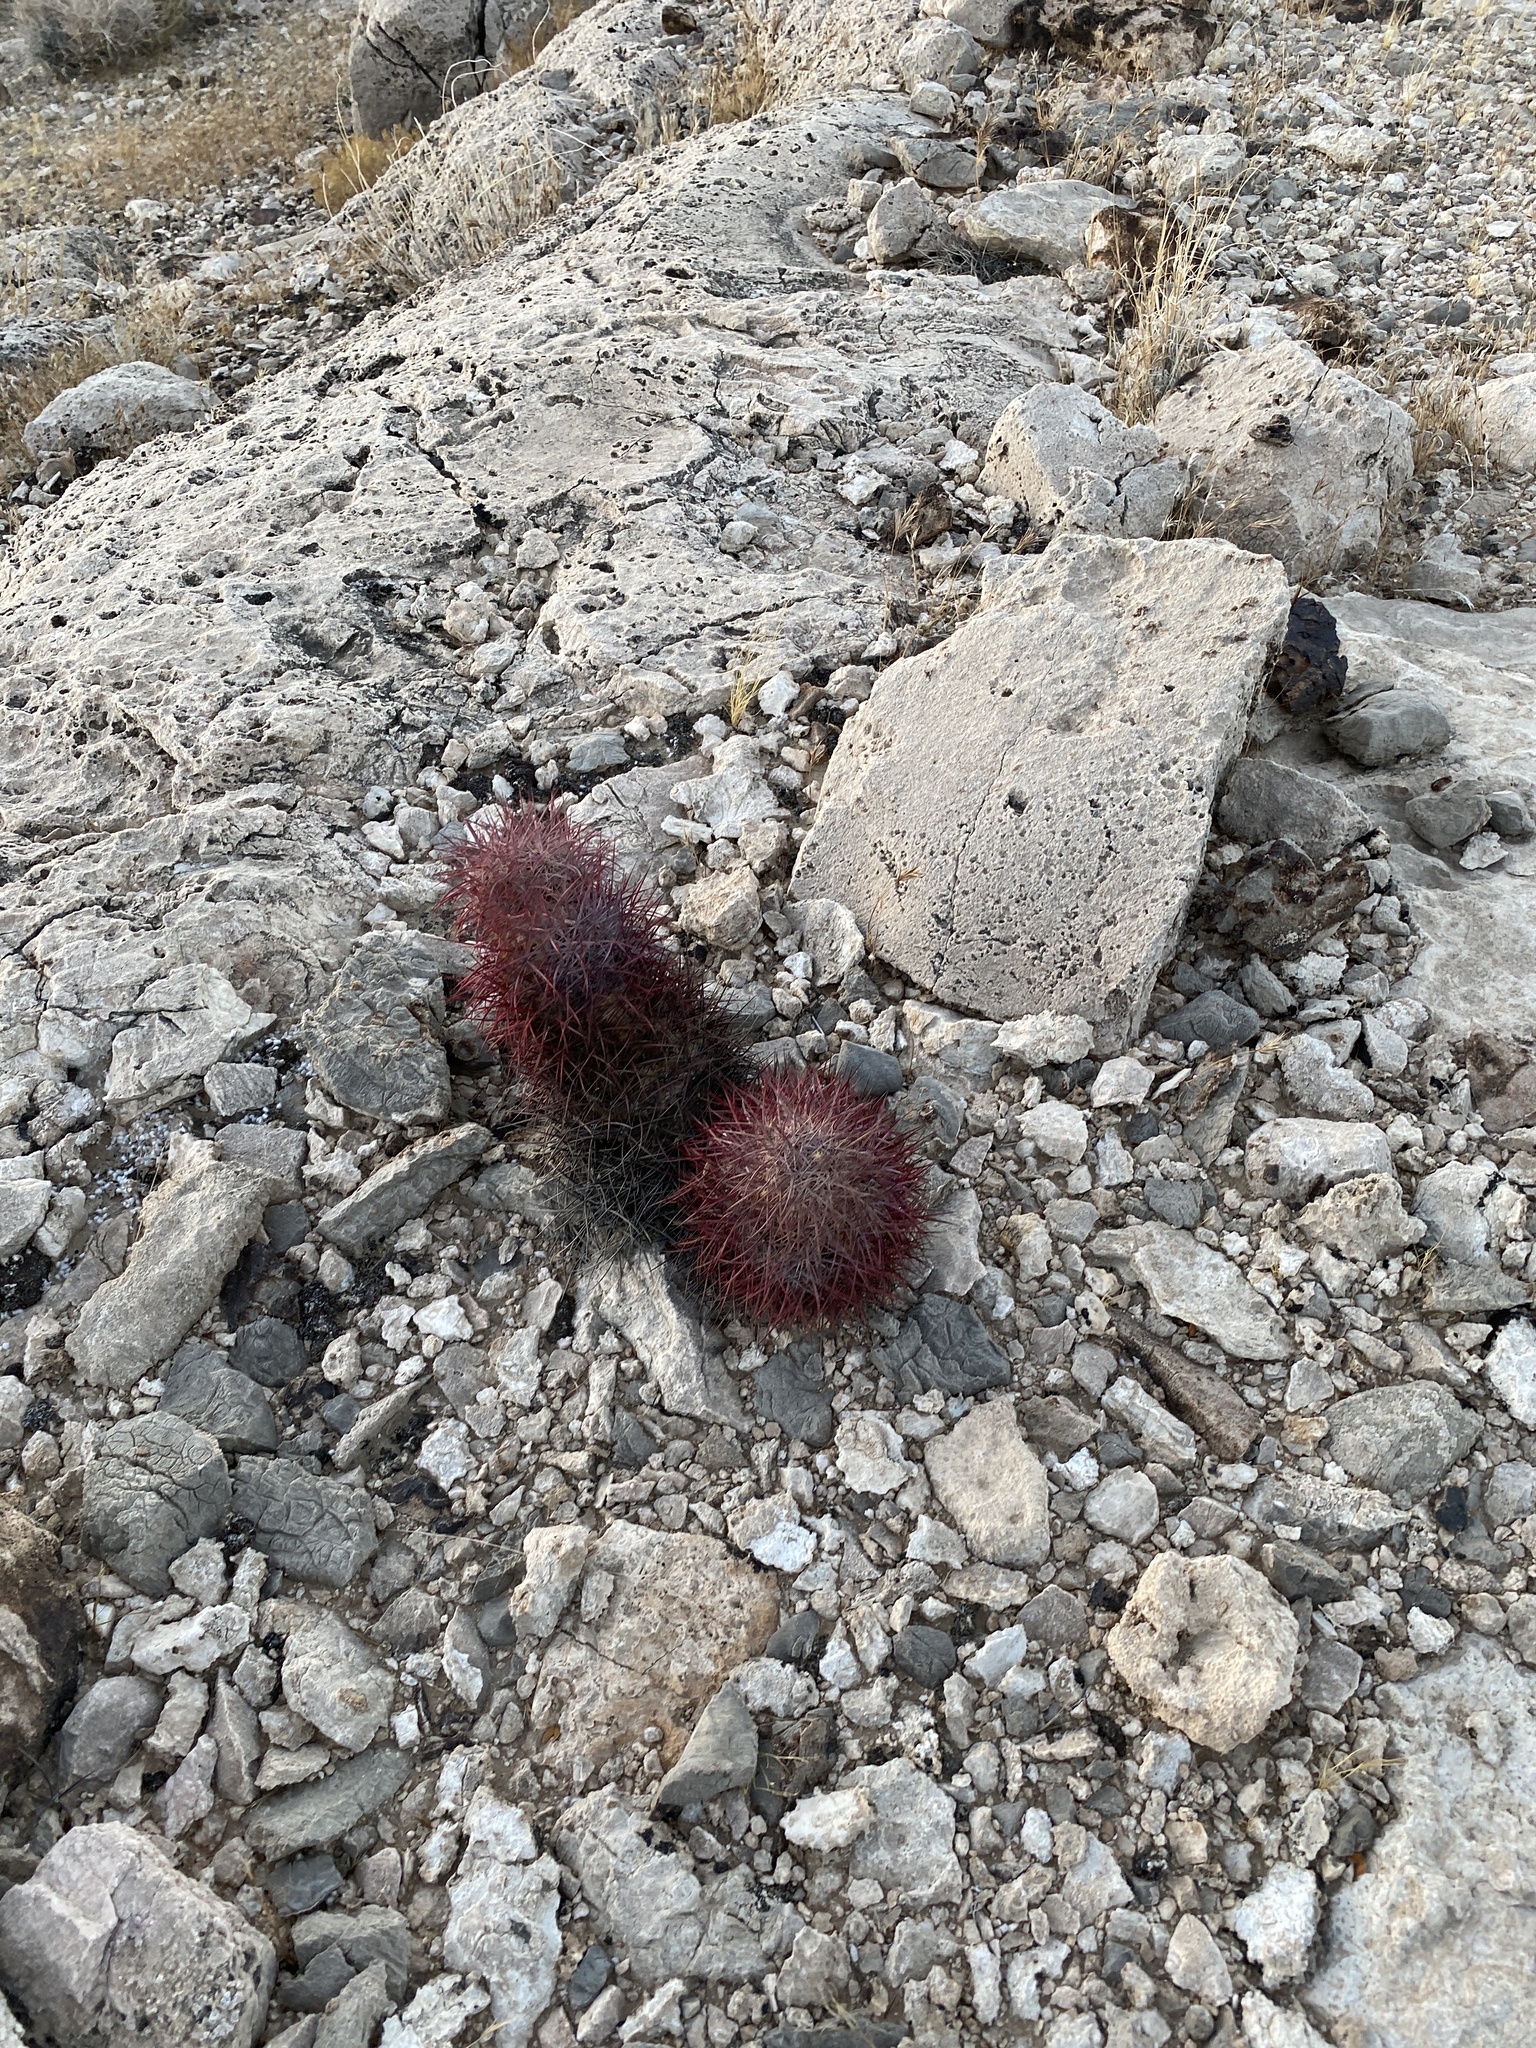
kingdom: Plantae
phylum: Tracheophyta
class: Magnoliopsida
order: Caryophyllales
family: Cactaceae
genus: Sclerocactus
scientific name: Sclerocactus johnsonii
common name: Eight-spine fishhook cactus
